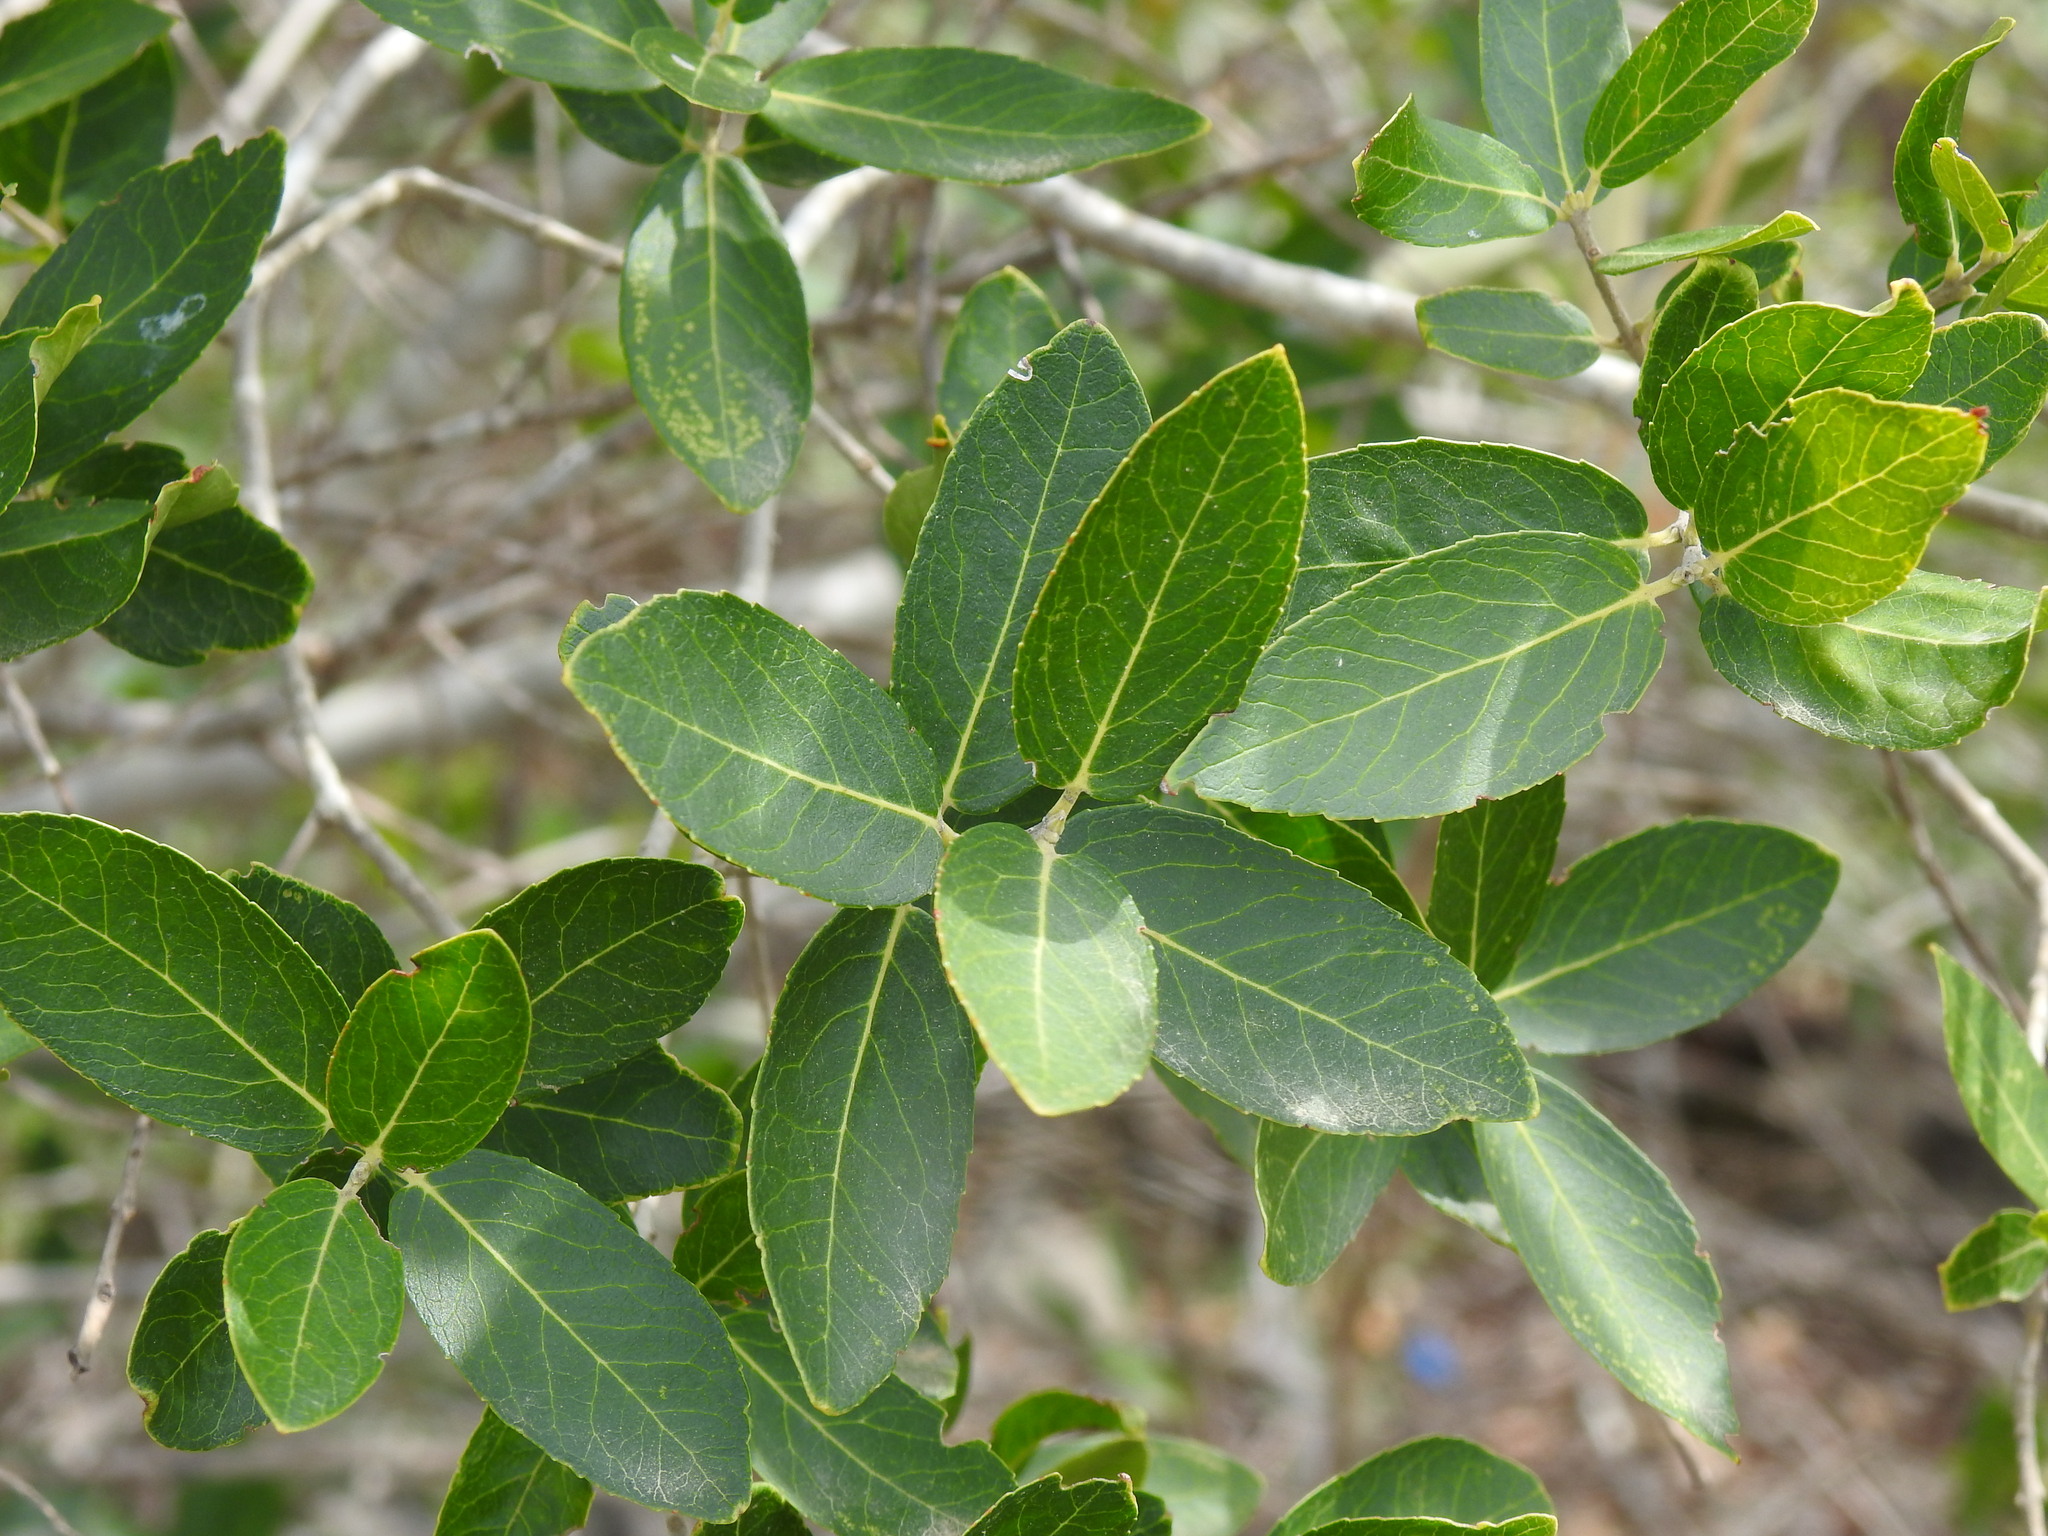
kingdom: Plantae
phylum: Tracheophyta
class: Magnoliopsida
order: Lamiales
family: Oleaceae
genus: Phillyrea
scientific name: Phillyrea latifolia
